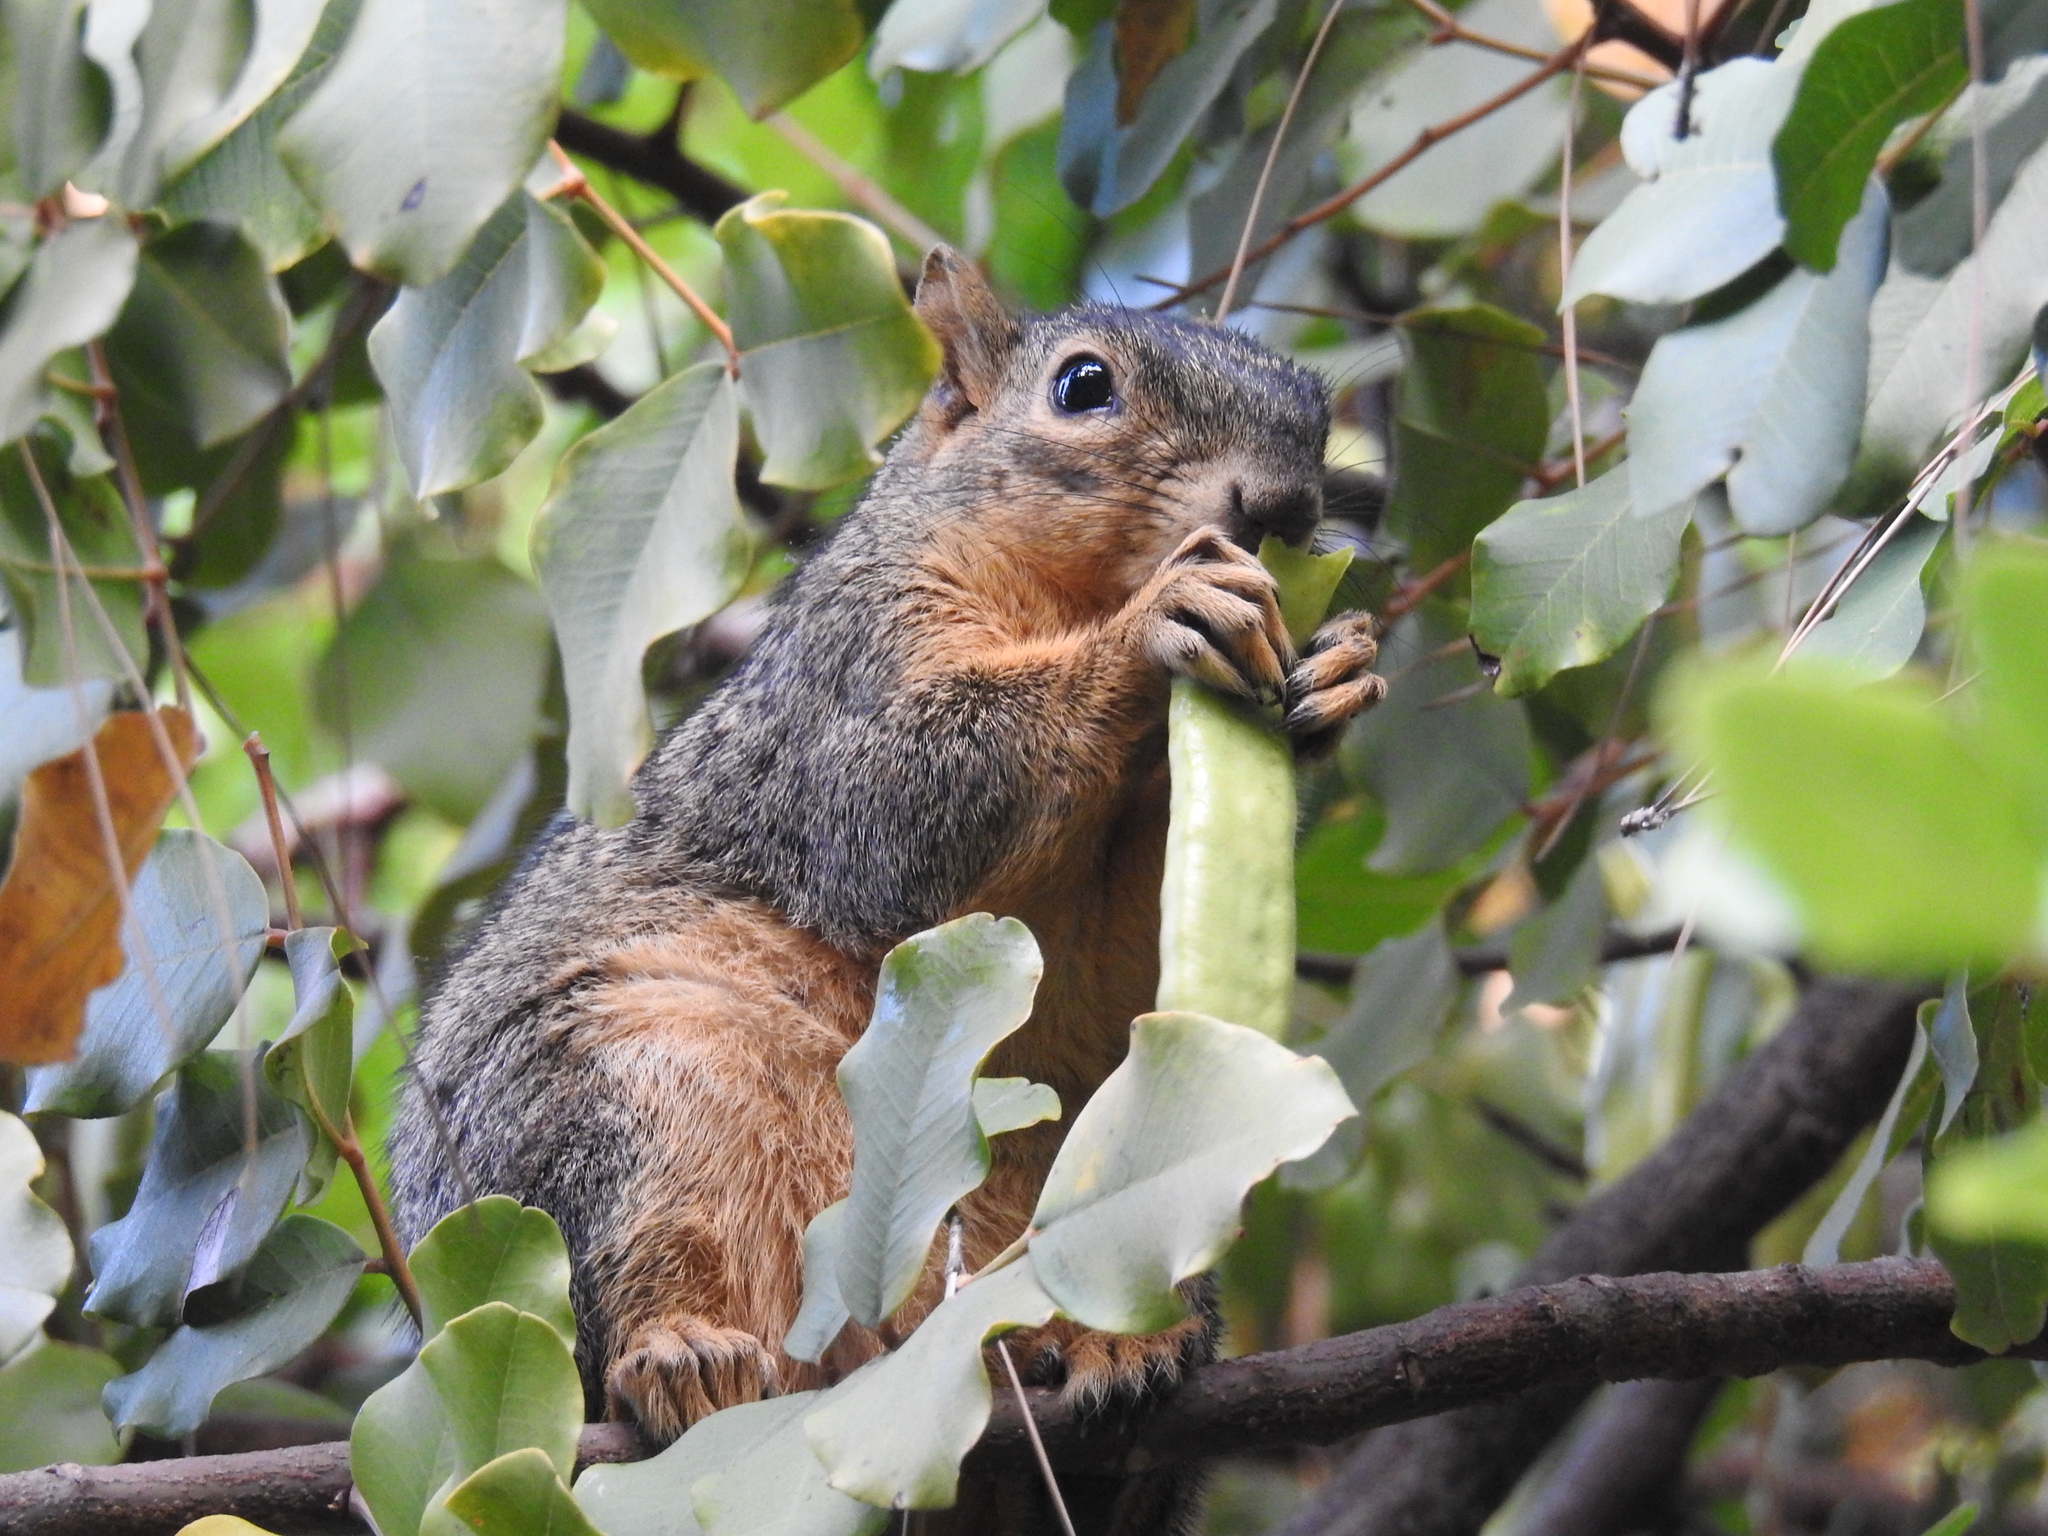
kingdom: Animalia
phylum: Chordata
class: Mammalia
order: Rodentia
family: Sciuridae
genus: Sciurus
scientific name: Sciurus niger
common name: Fox squirrel
